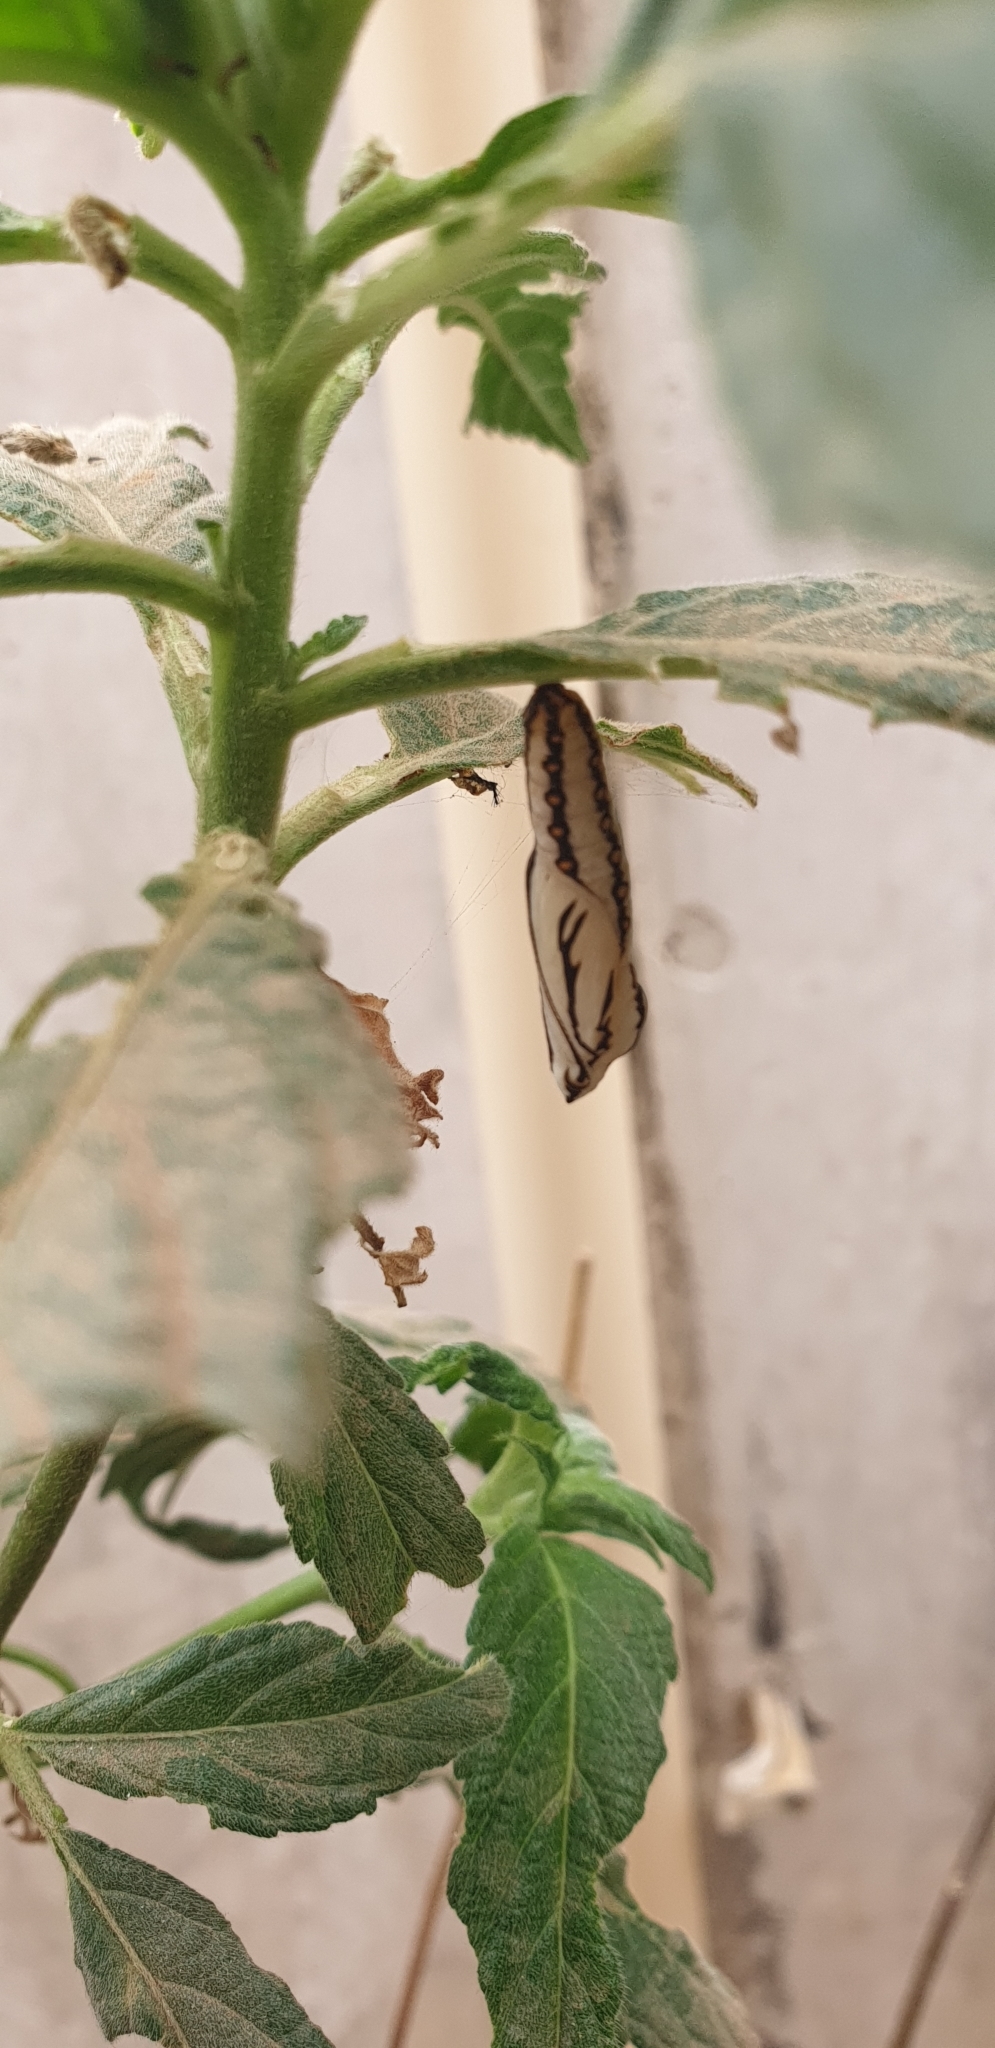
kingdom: Animalia
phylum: Arthropoda
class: Insecta
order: Lepidoptera
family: Nymphalidae
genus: Acraea
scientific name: Acraea terpsicore
